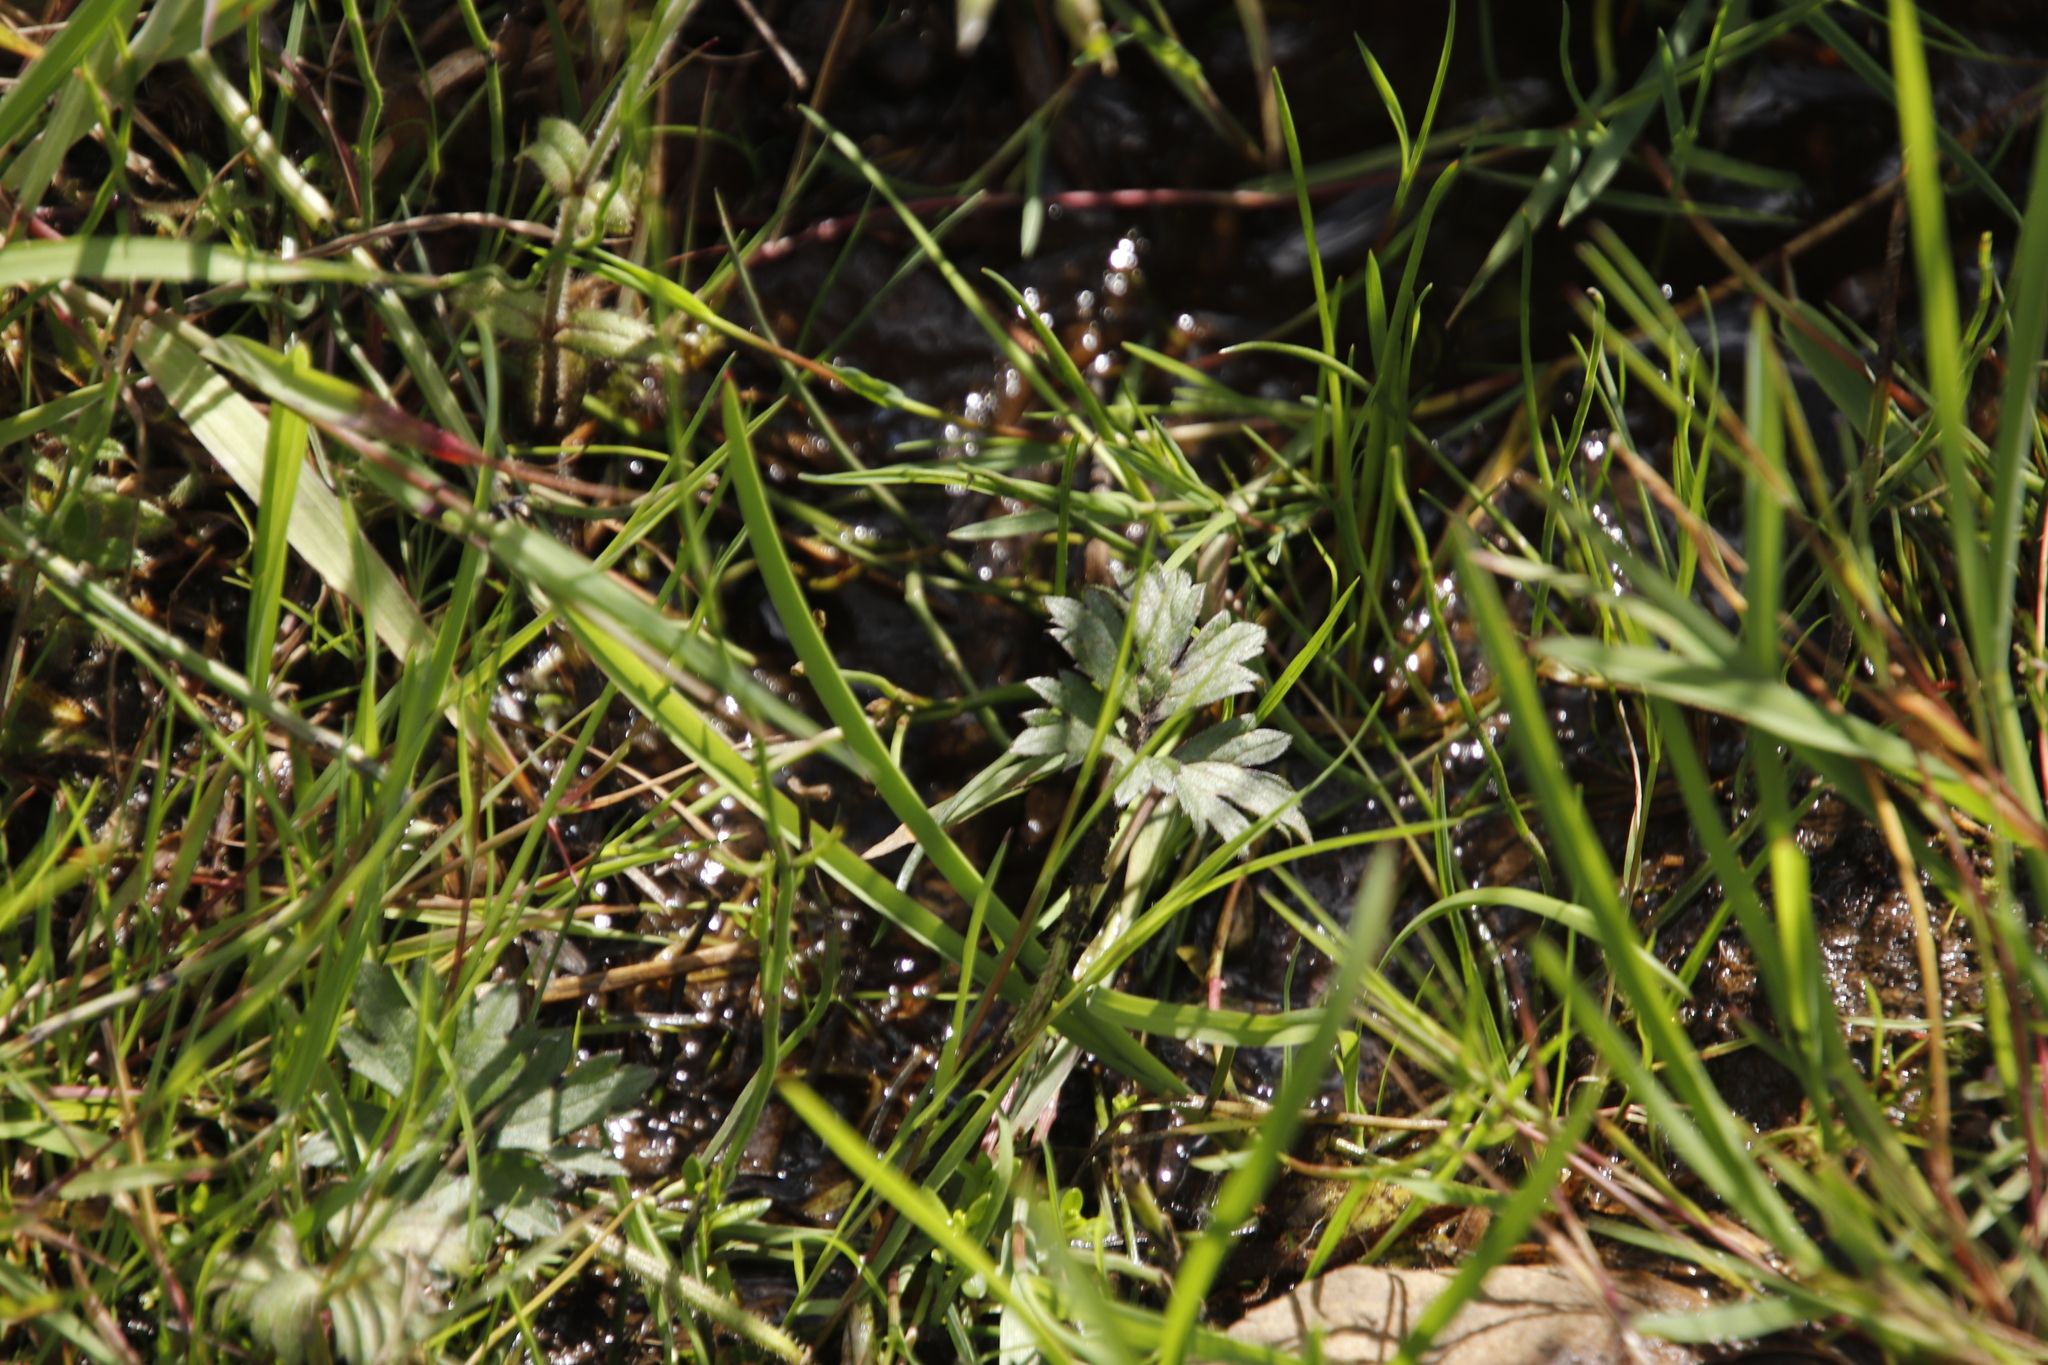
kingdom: Plantae
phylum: Tracheophyta
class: Magnoliopsida
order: Ranunculales
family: Ranunculaceae
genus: Ranunculus
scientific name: Ranunculus repens
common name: Creeping buttercup
